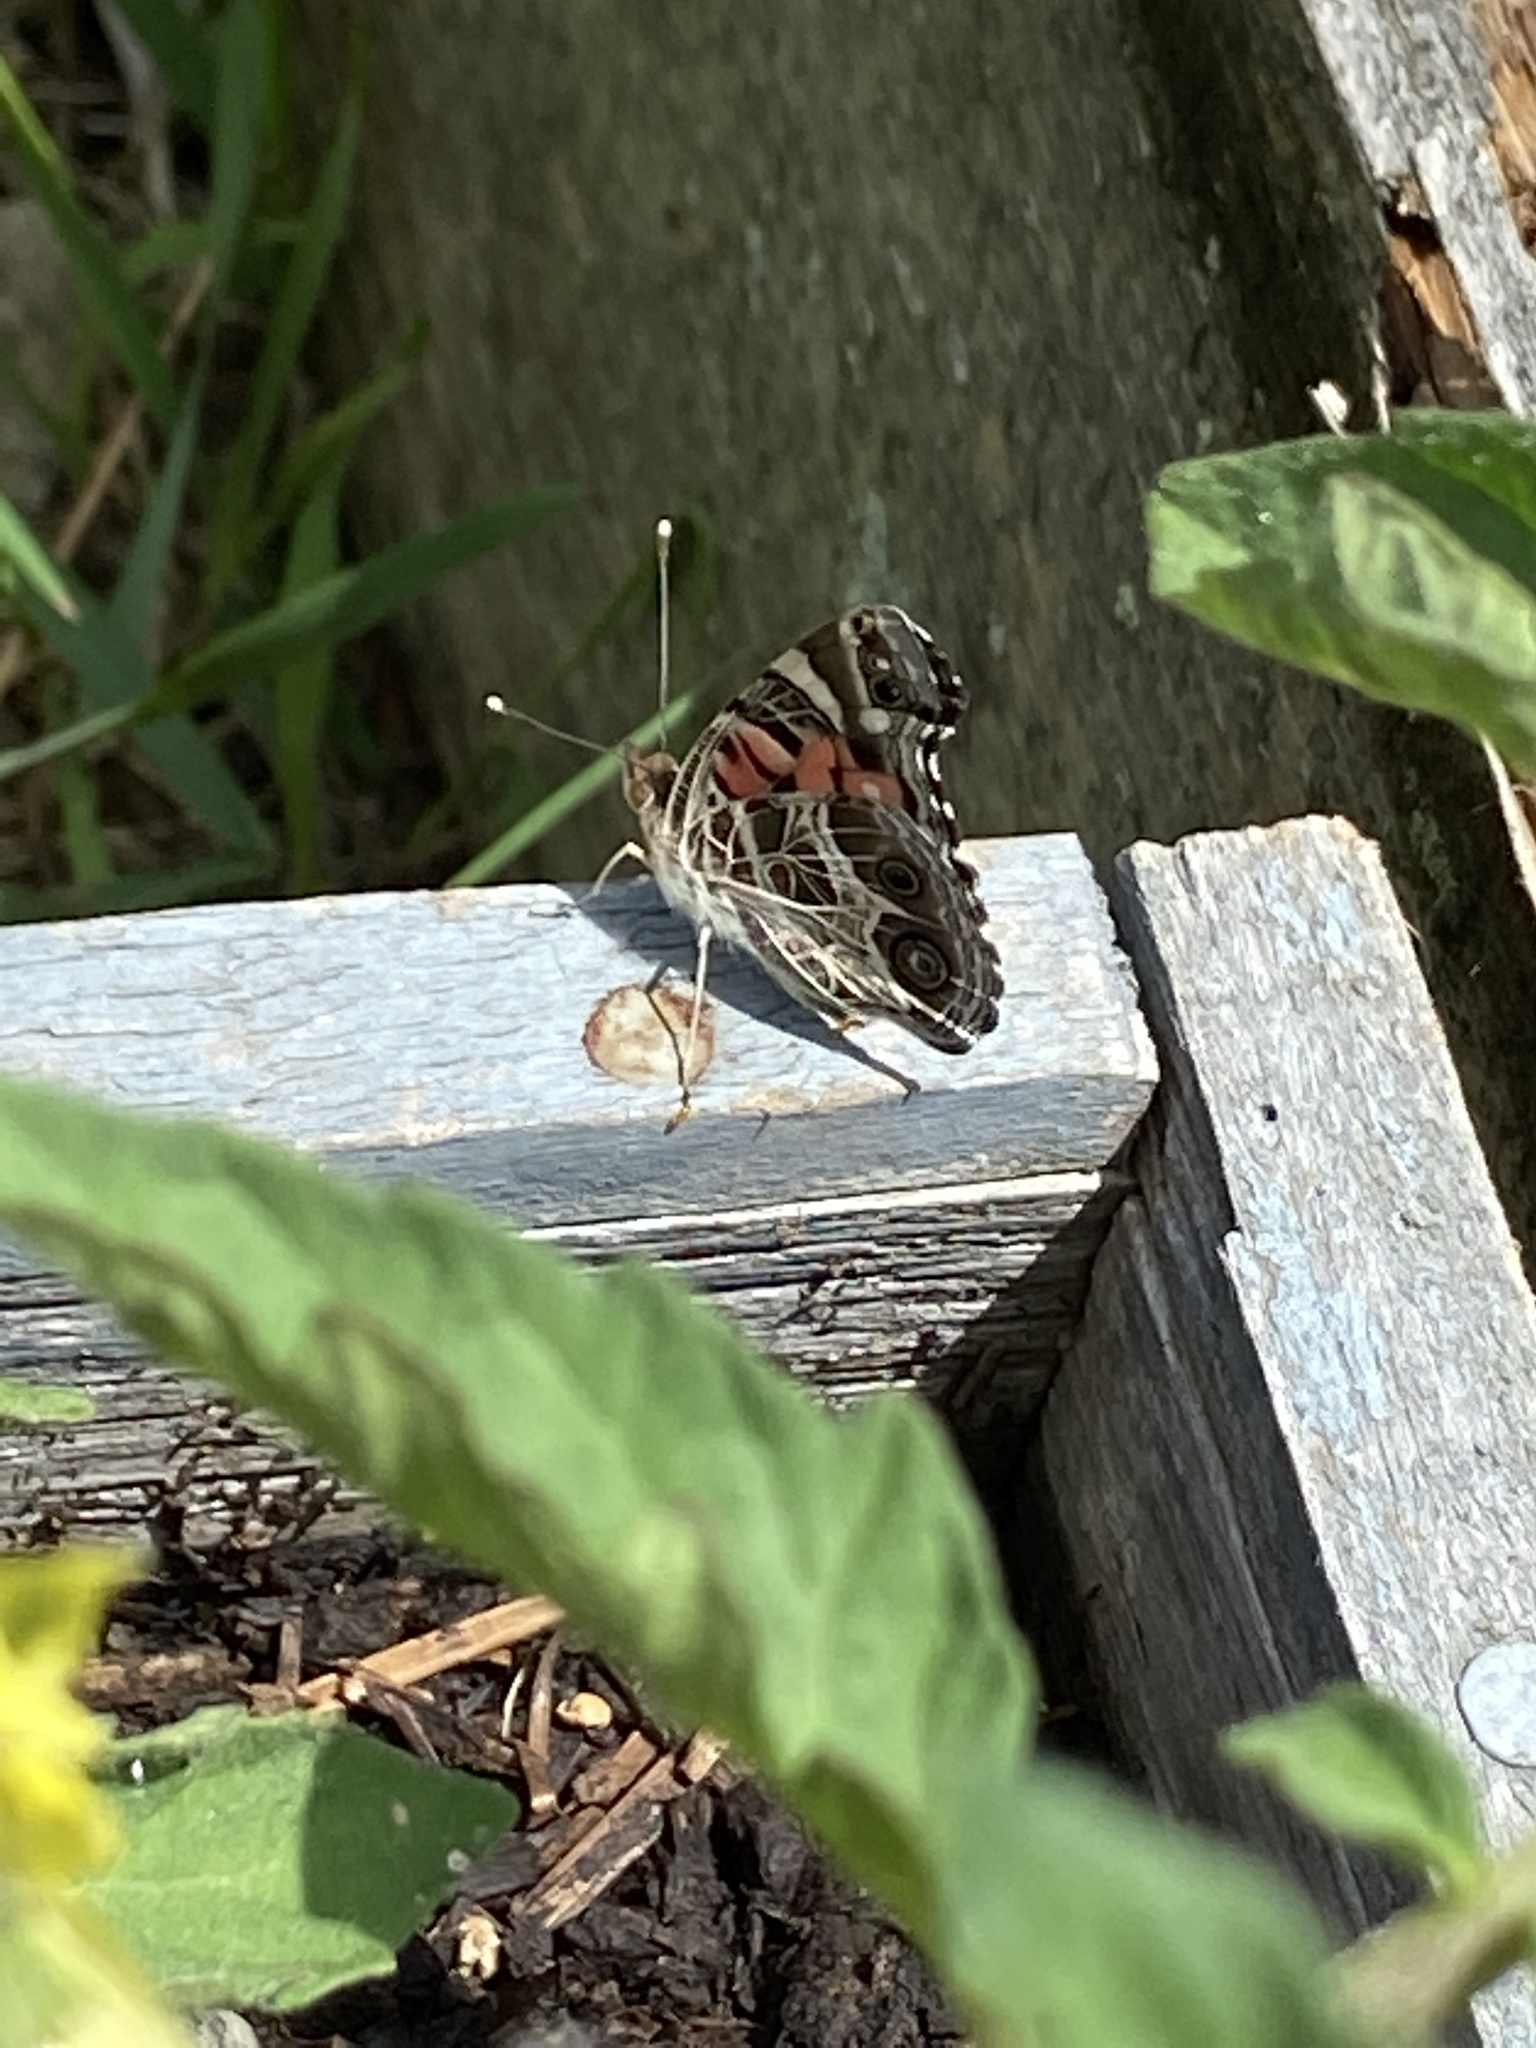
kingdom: Animalia
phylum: Arthropoda
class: Insecta
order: Lepidoptera
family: Nymphalidae
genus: Vanessa
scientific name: Vanessa virginiensis
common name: American lady
